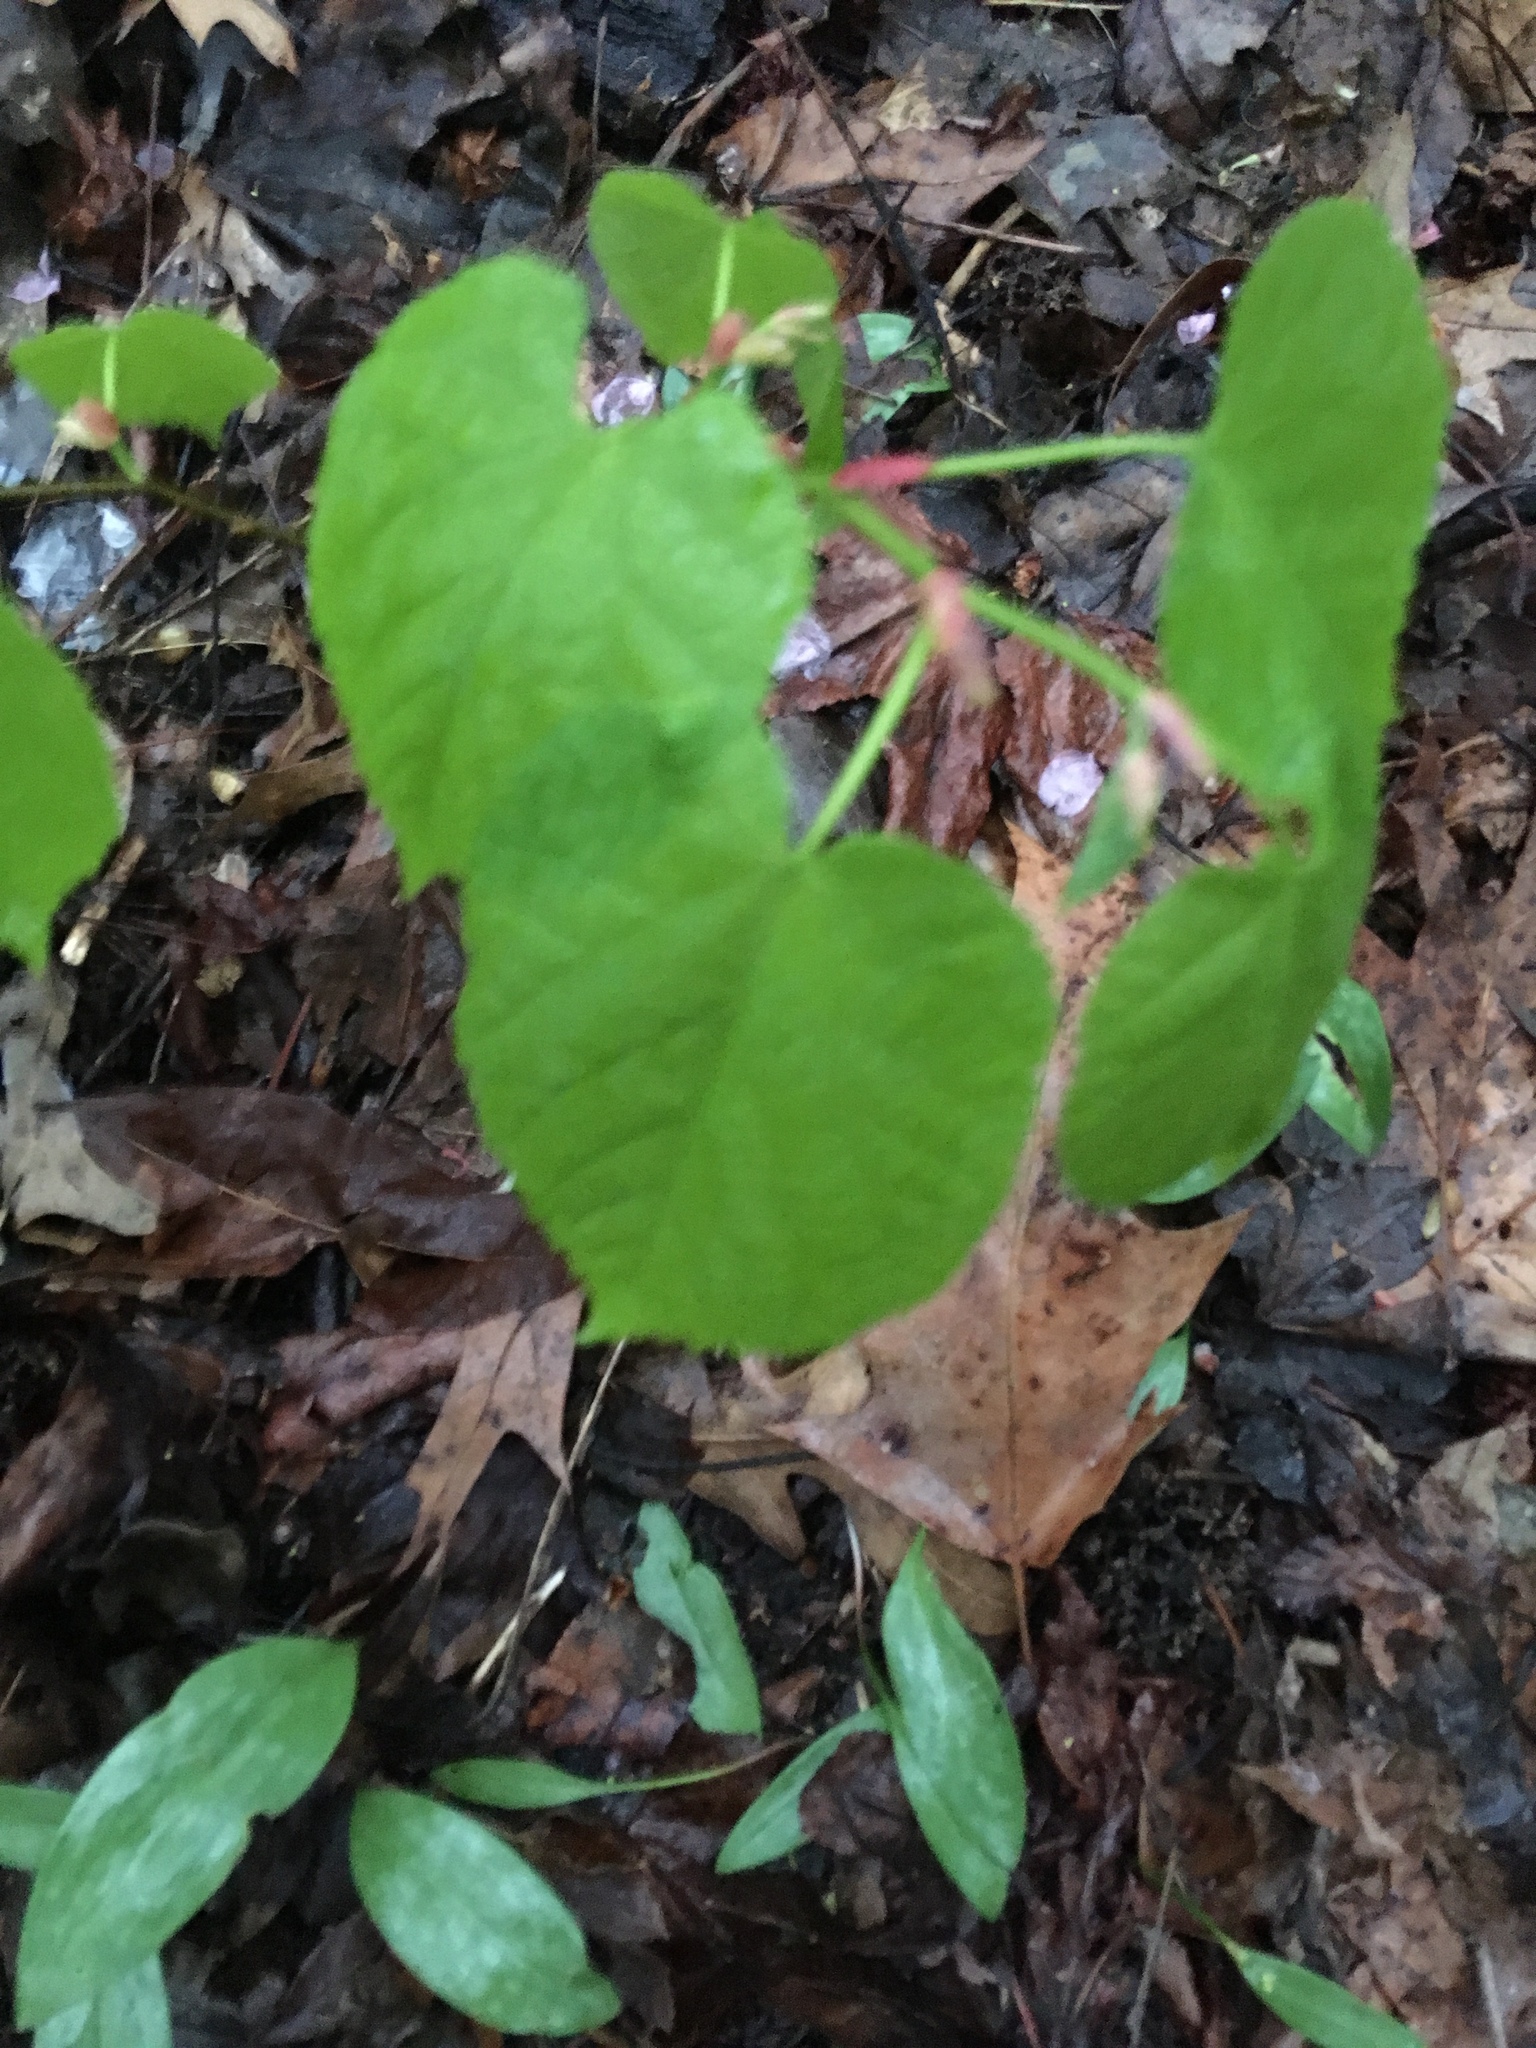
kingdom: Plantae
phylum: Tracheophyta
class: Magnoliopsida
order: Malvales
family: Malvaceae
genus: Tilia
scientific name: Tilia americana
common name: Basswood
